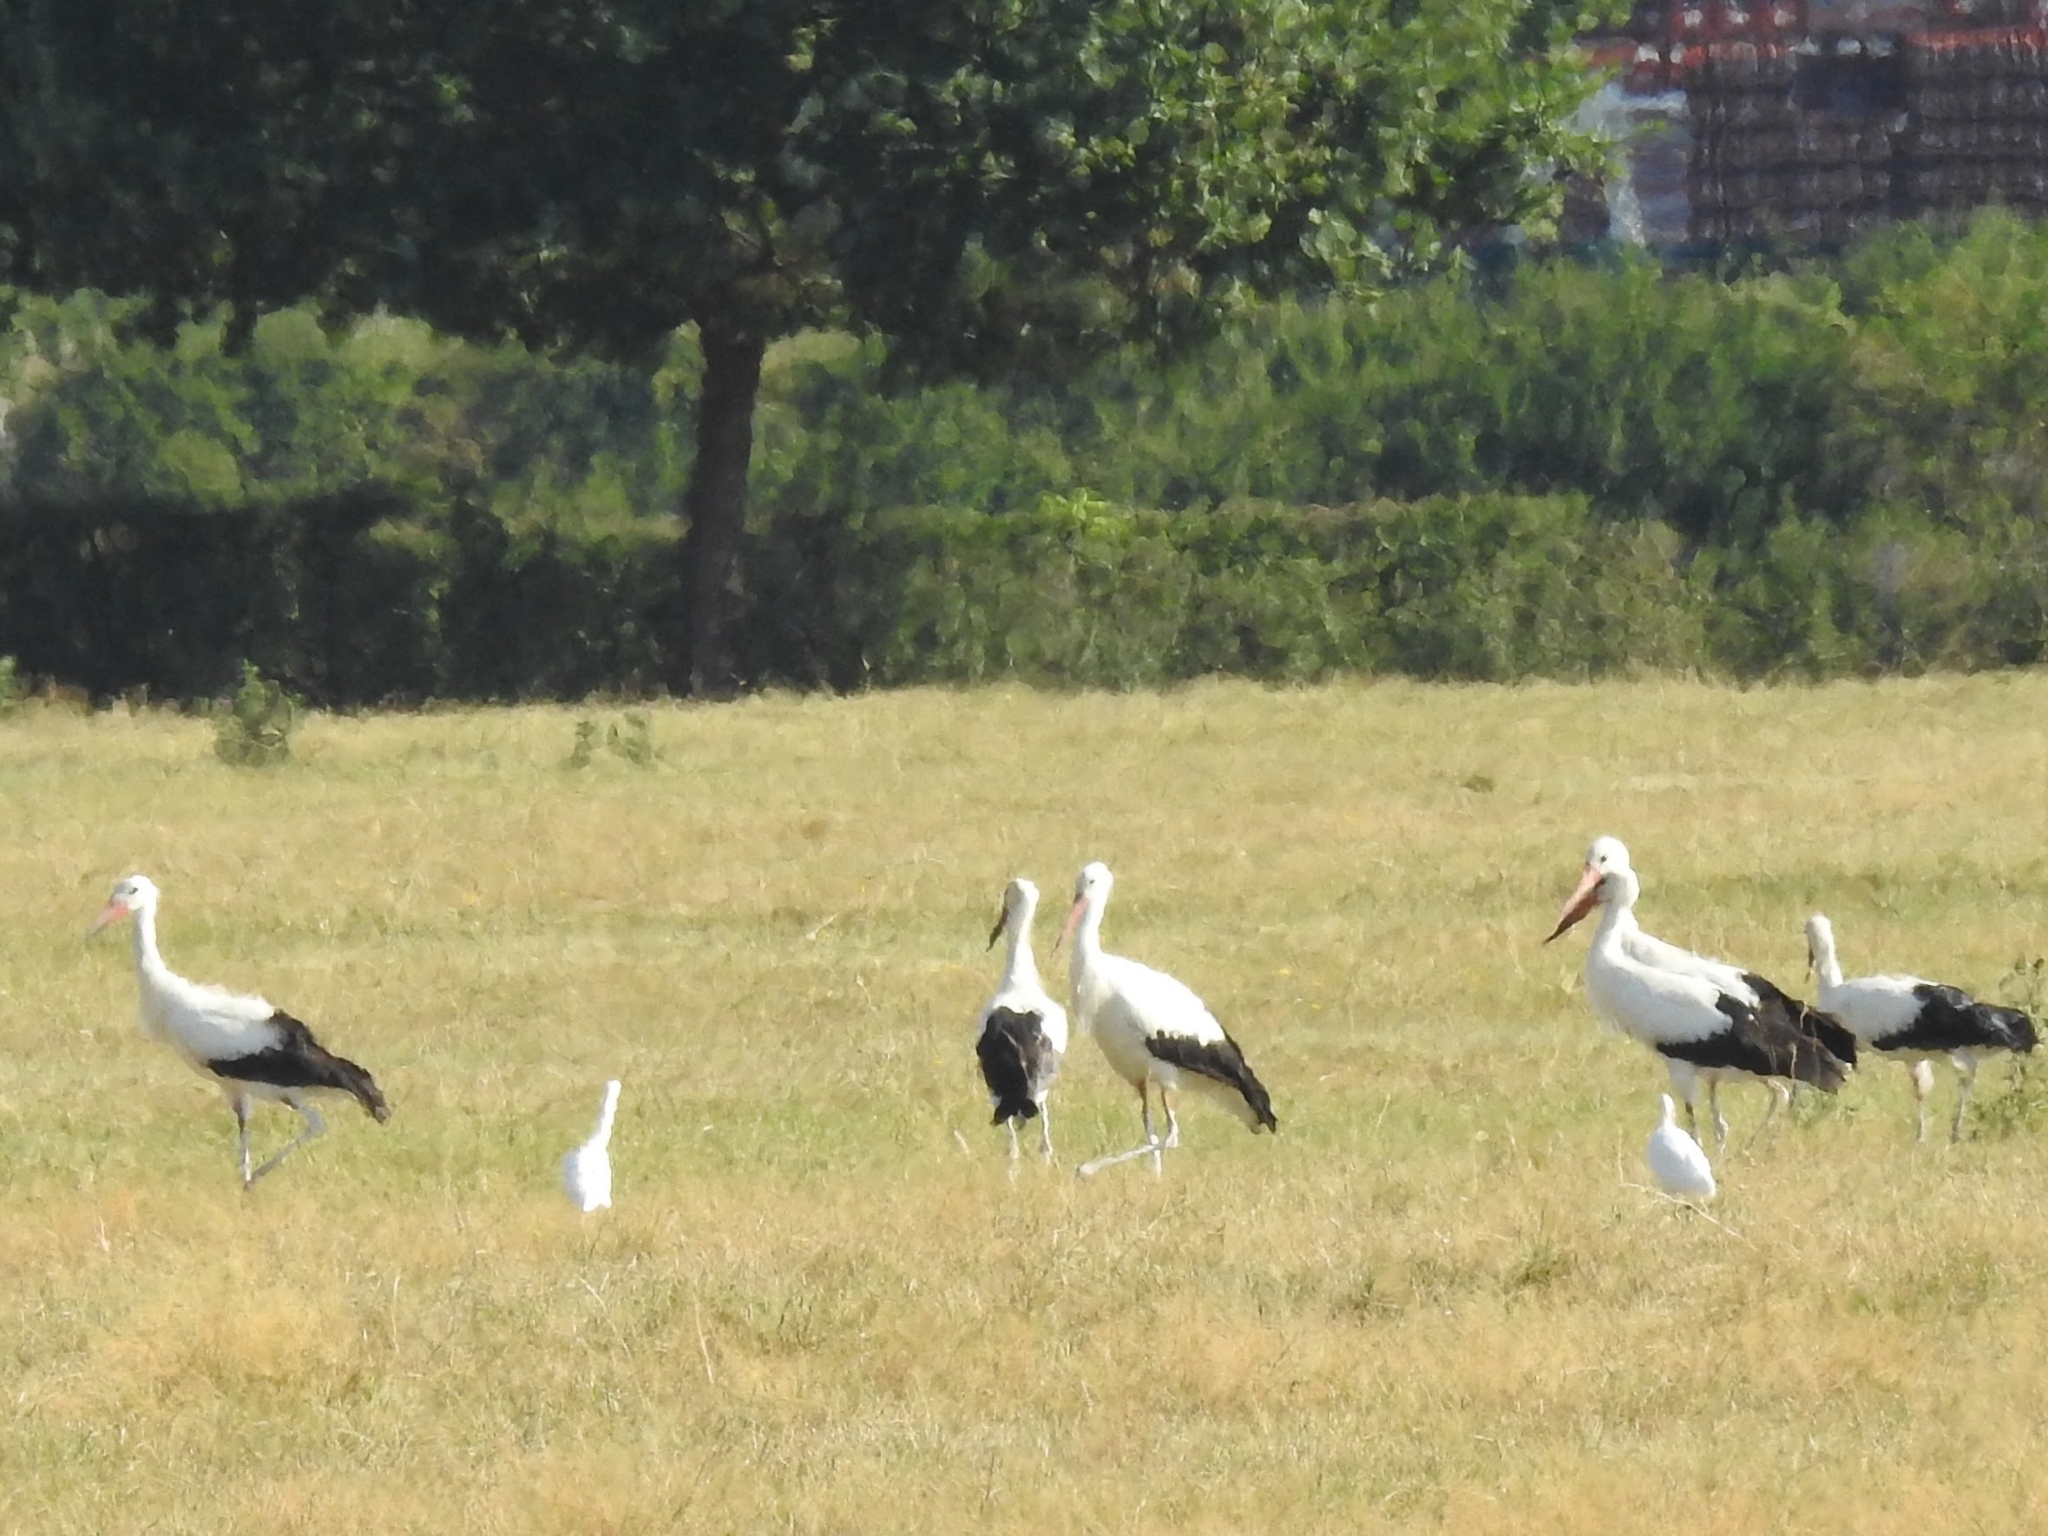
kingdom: Animalia
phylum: Chordata
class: Aves
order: Ciconiiformes
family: Ciconiidae
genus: Ciconia
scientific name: Ciconia ciconia
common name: White stork
